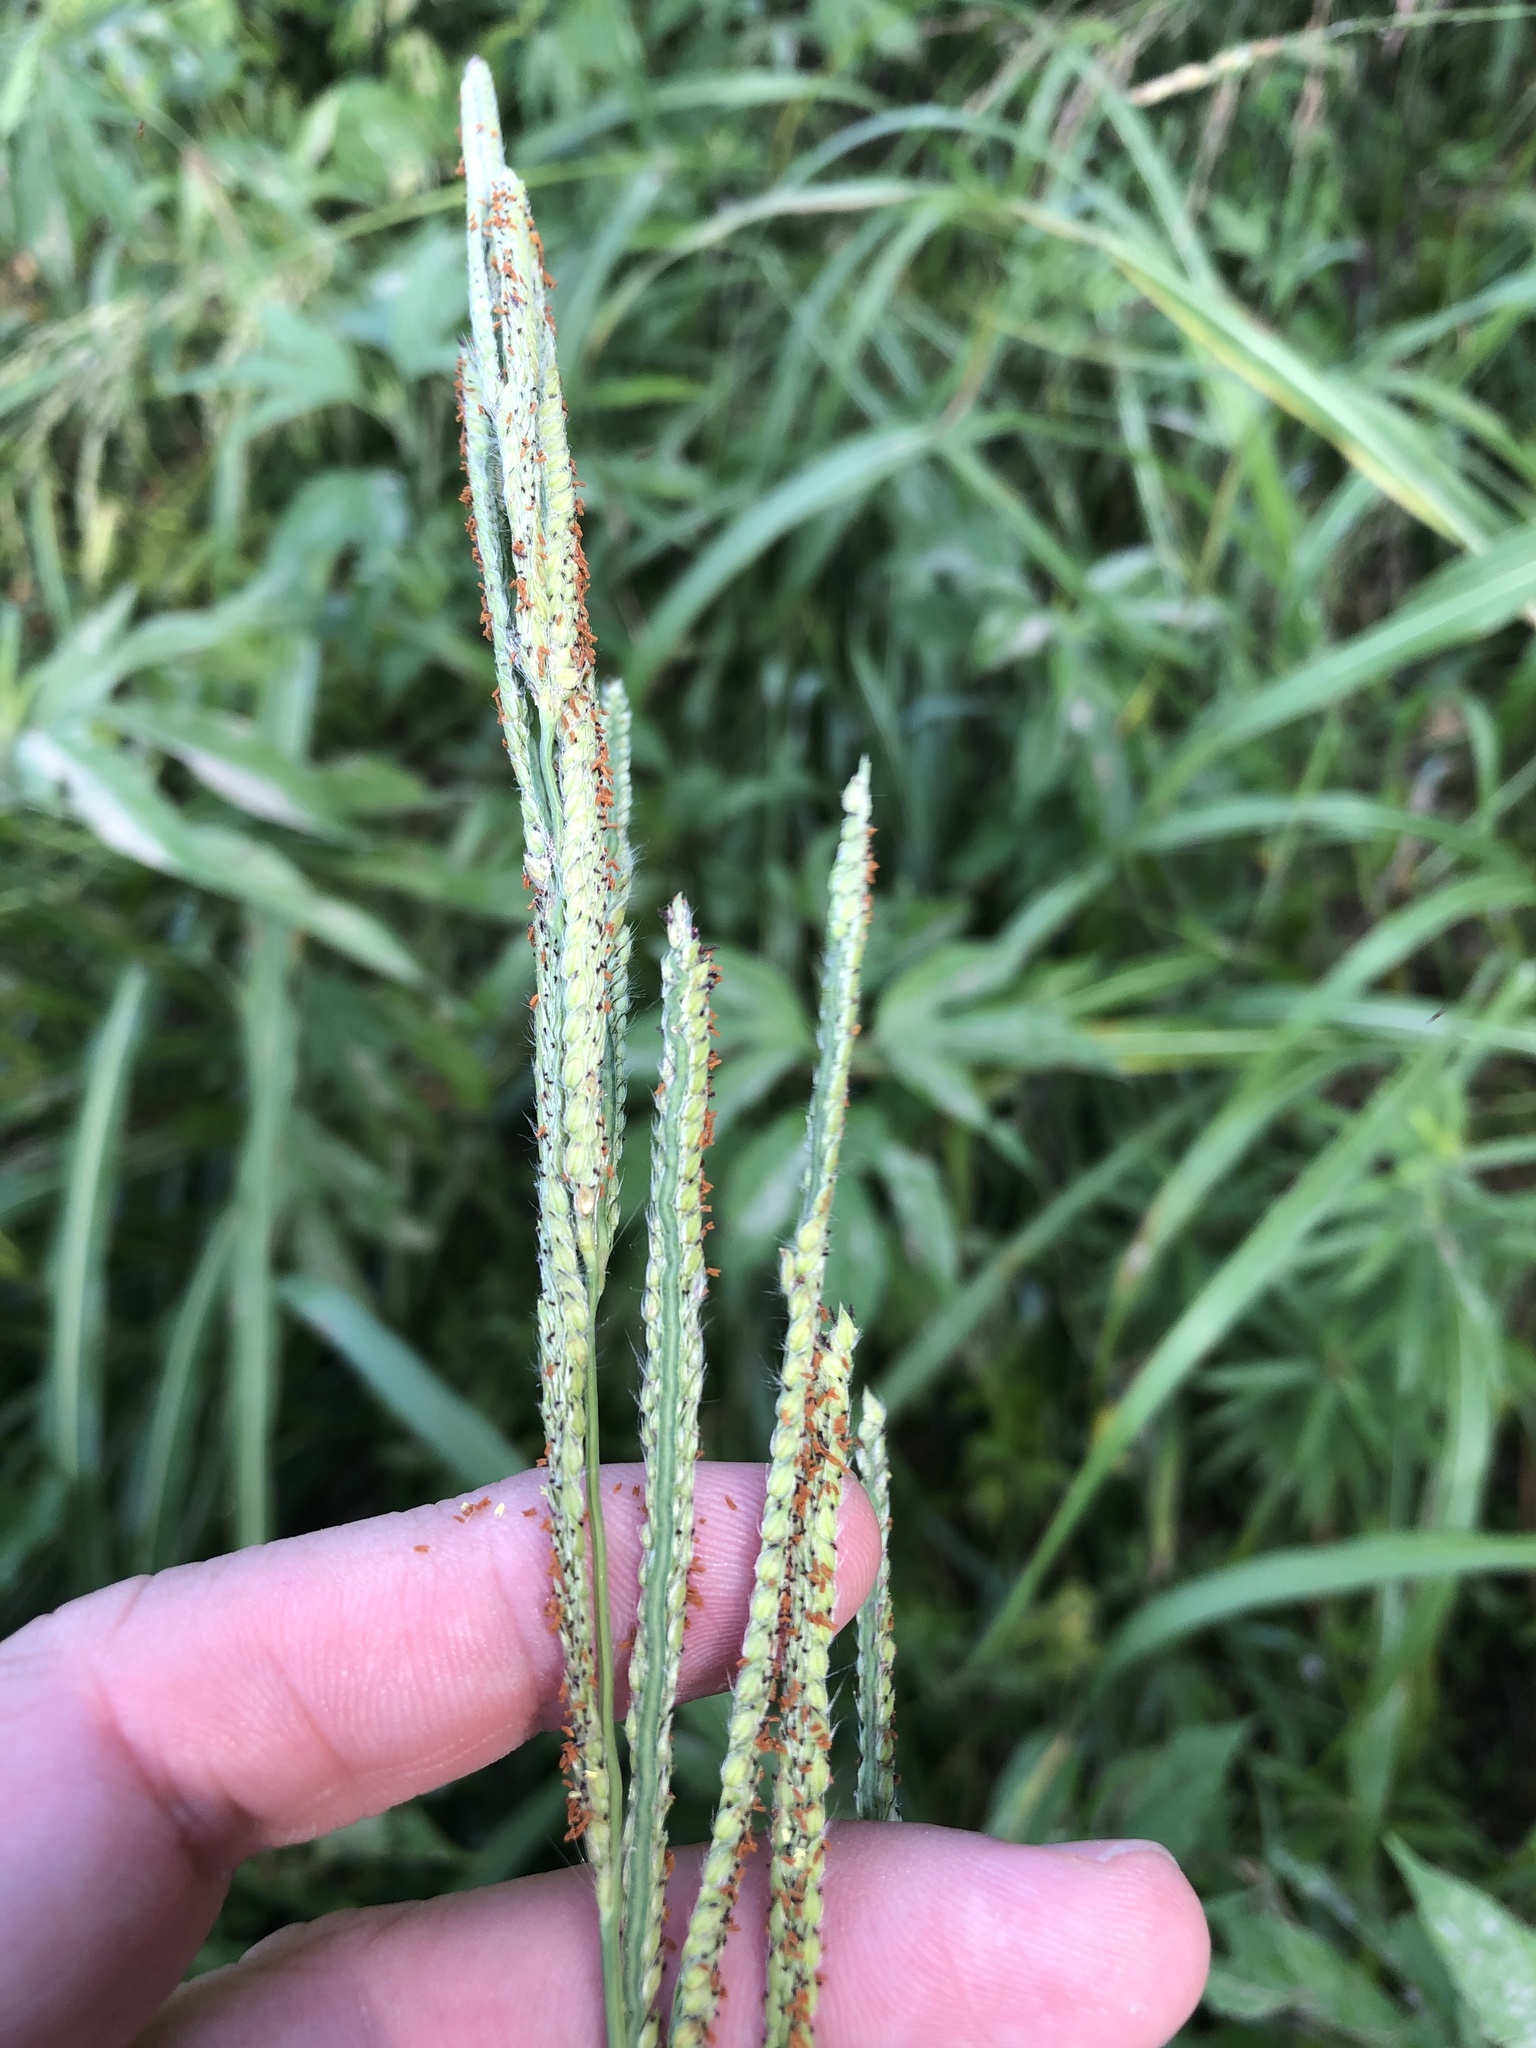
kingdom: Plantae
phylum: Tracheophyta
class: Liliopsida
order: Poales
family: Poaceae
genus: Paspalum
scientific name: Paspalum urvillei
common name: Vasey's grass
